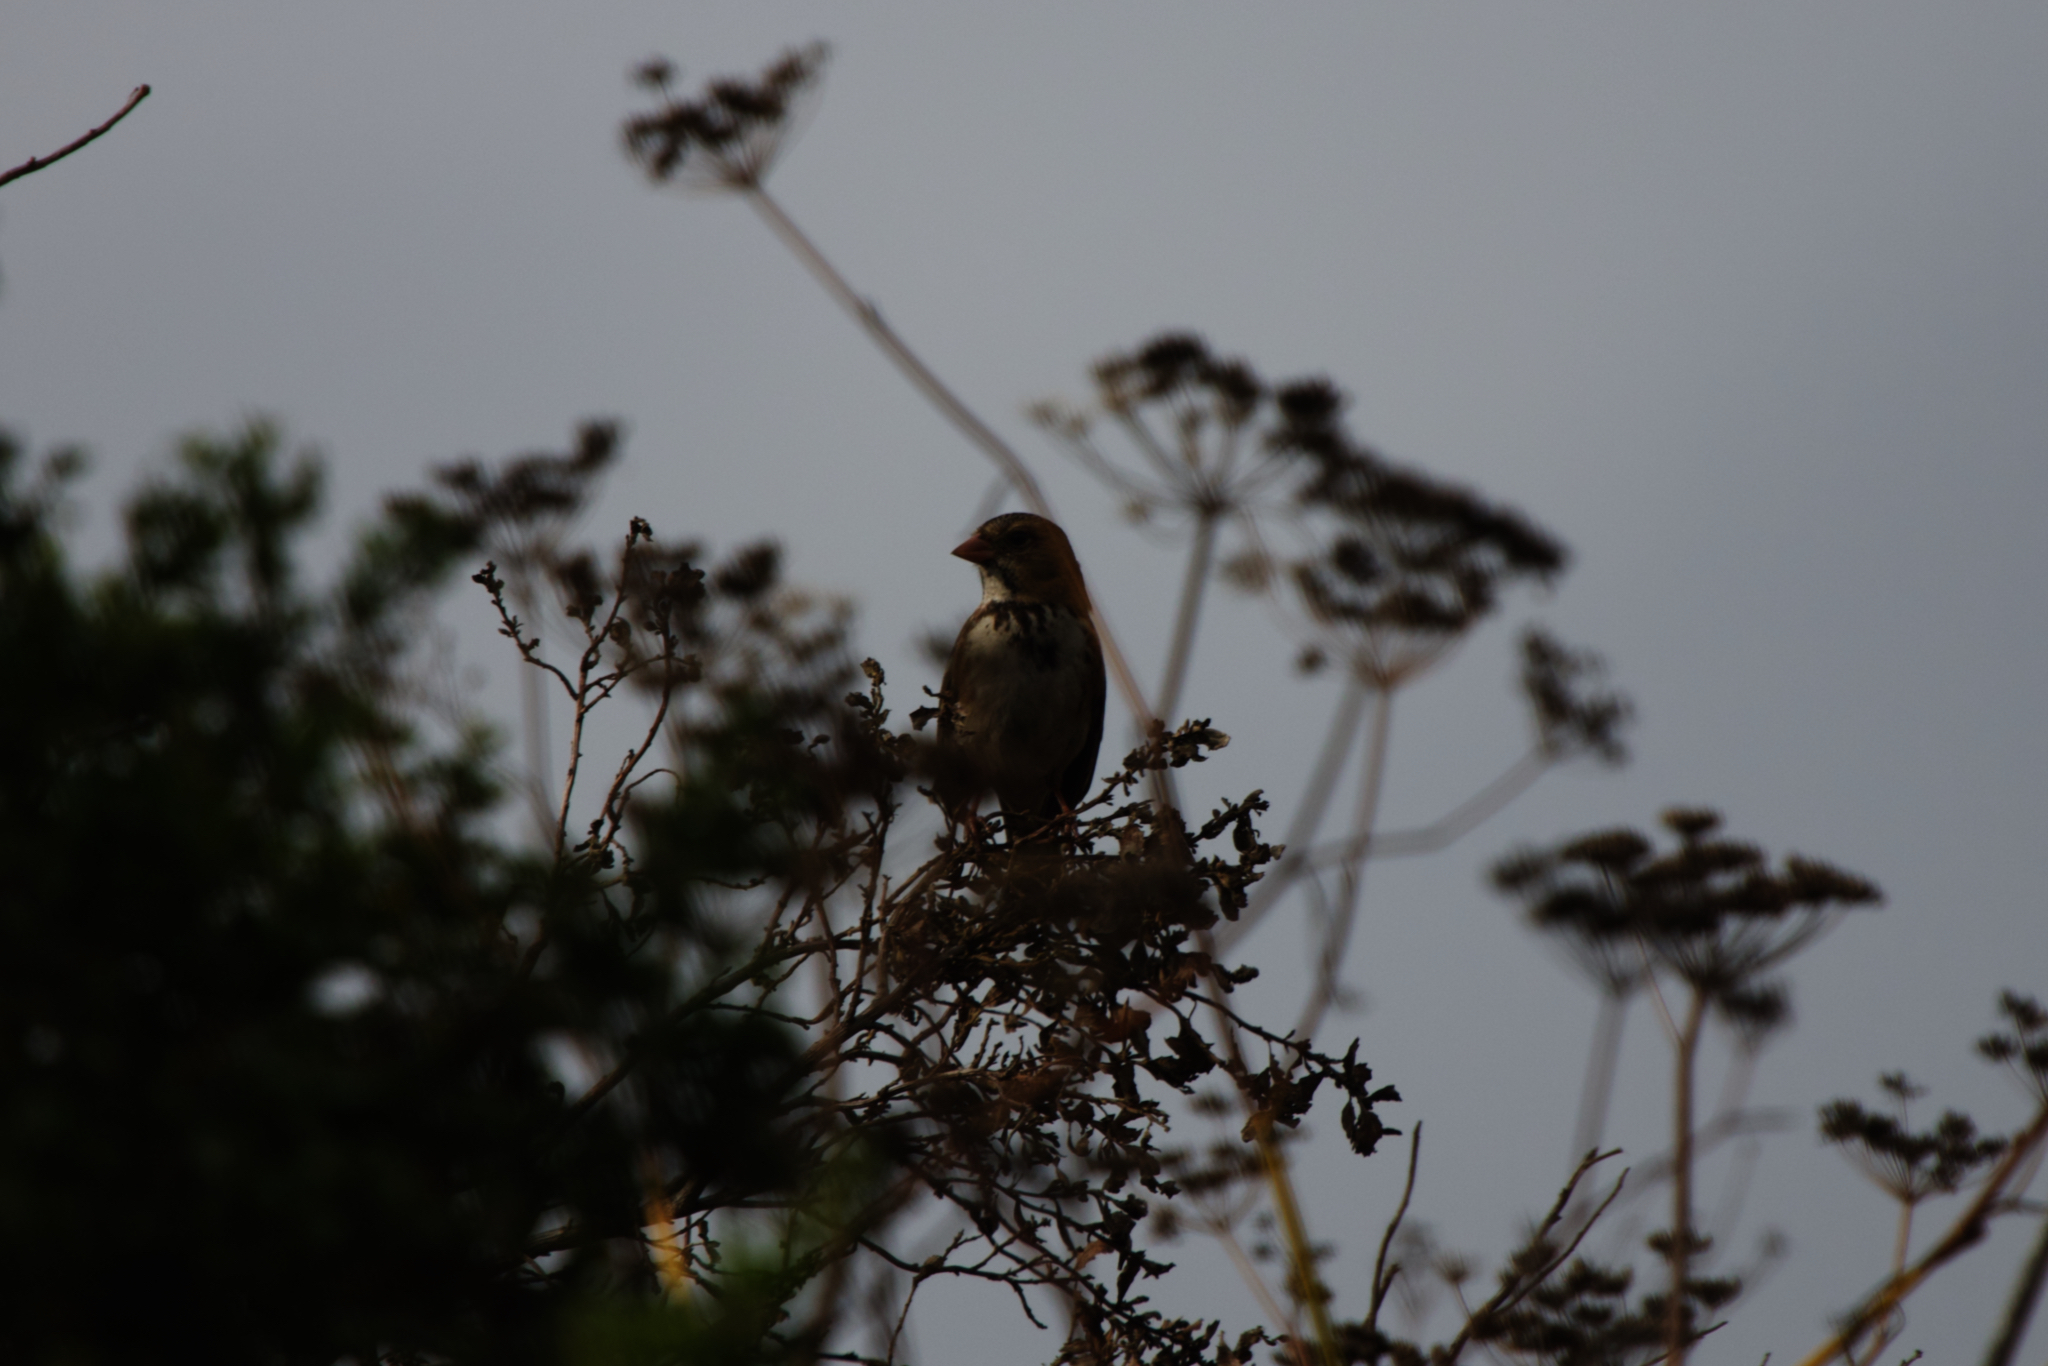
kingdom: Animalia
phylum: Chordata
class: Aves
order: Passeriformes
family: Passerellidae
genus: Zonotrichia
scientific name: Zonotrichia querula
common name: Harris's sparrow
